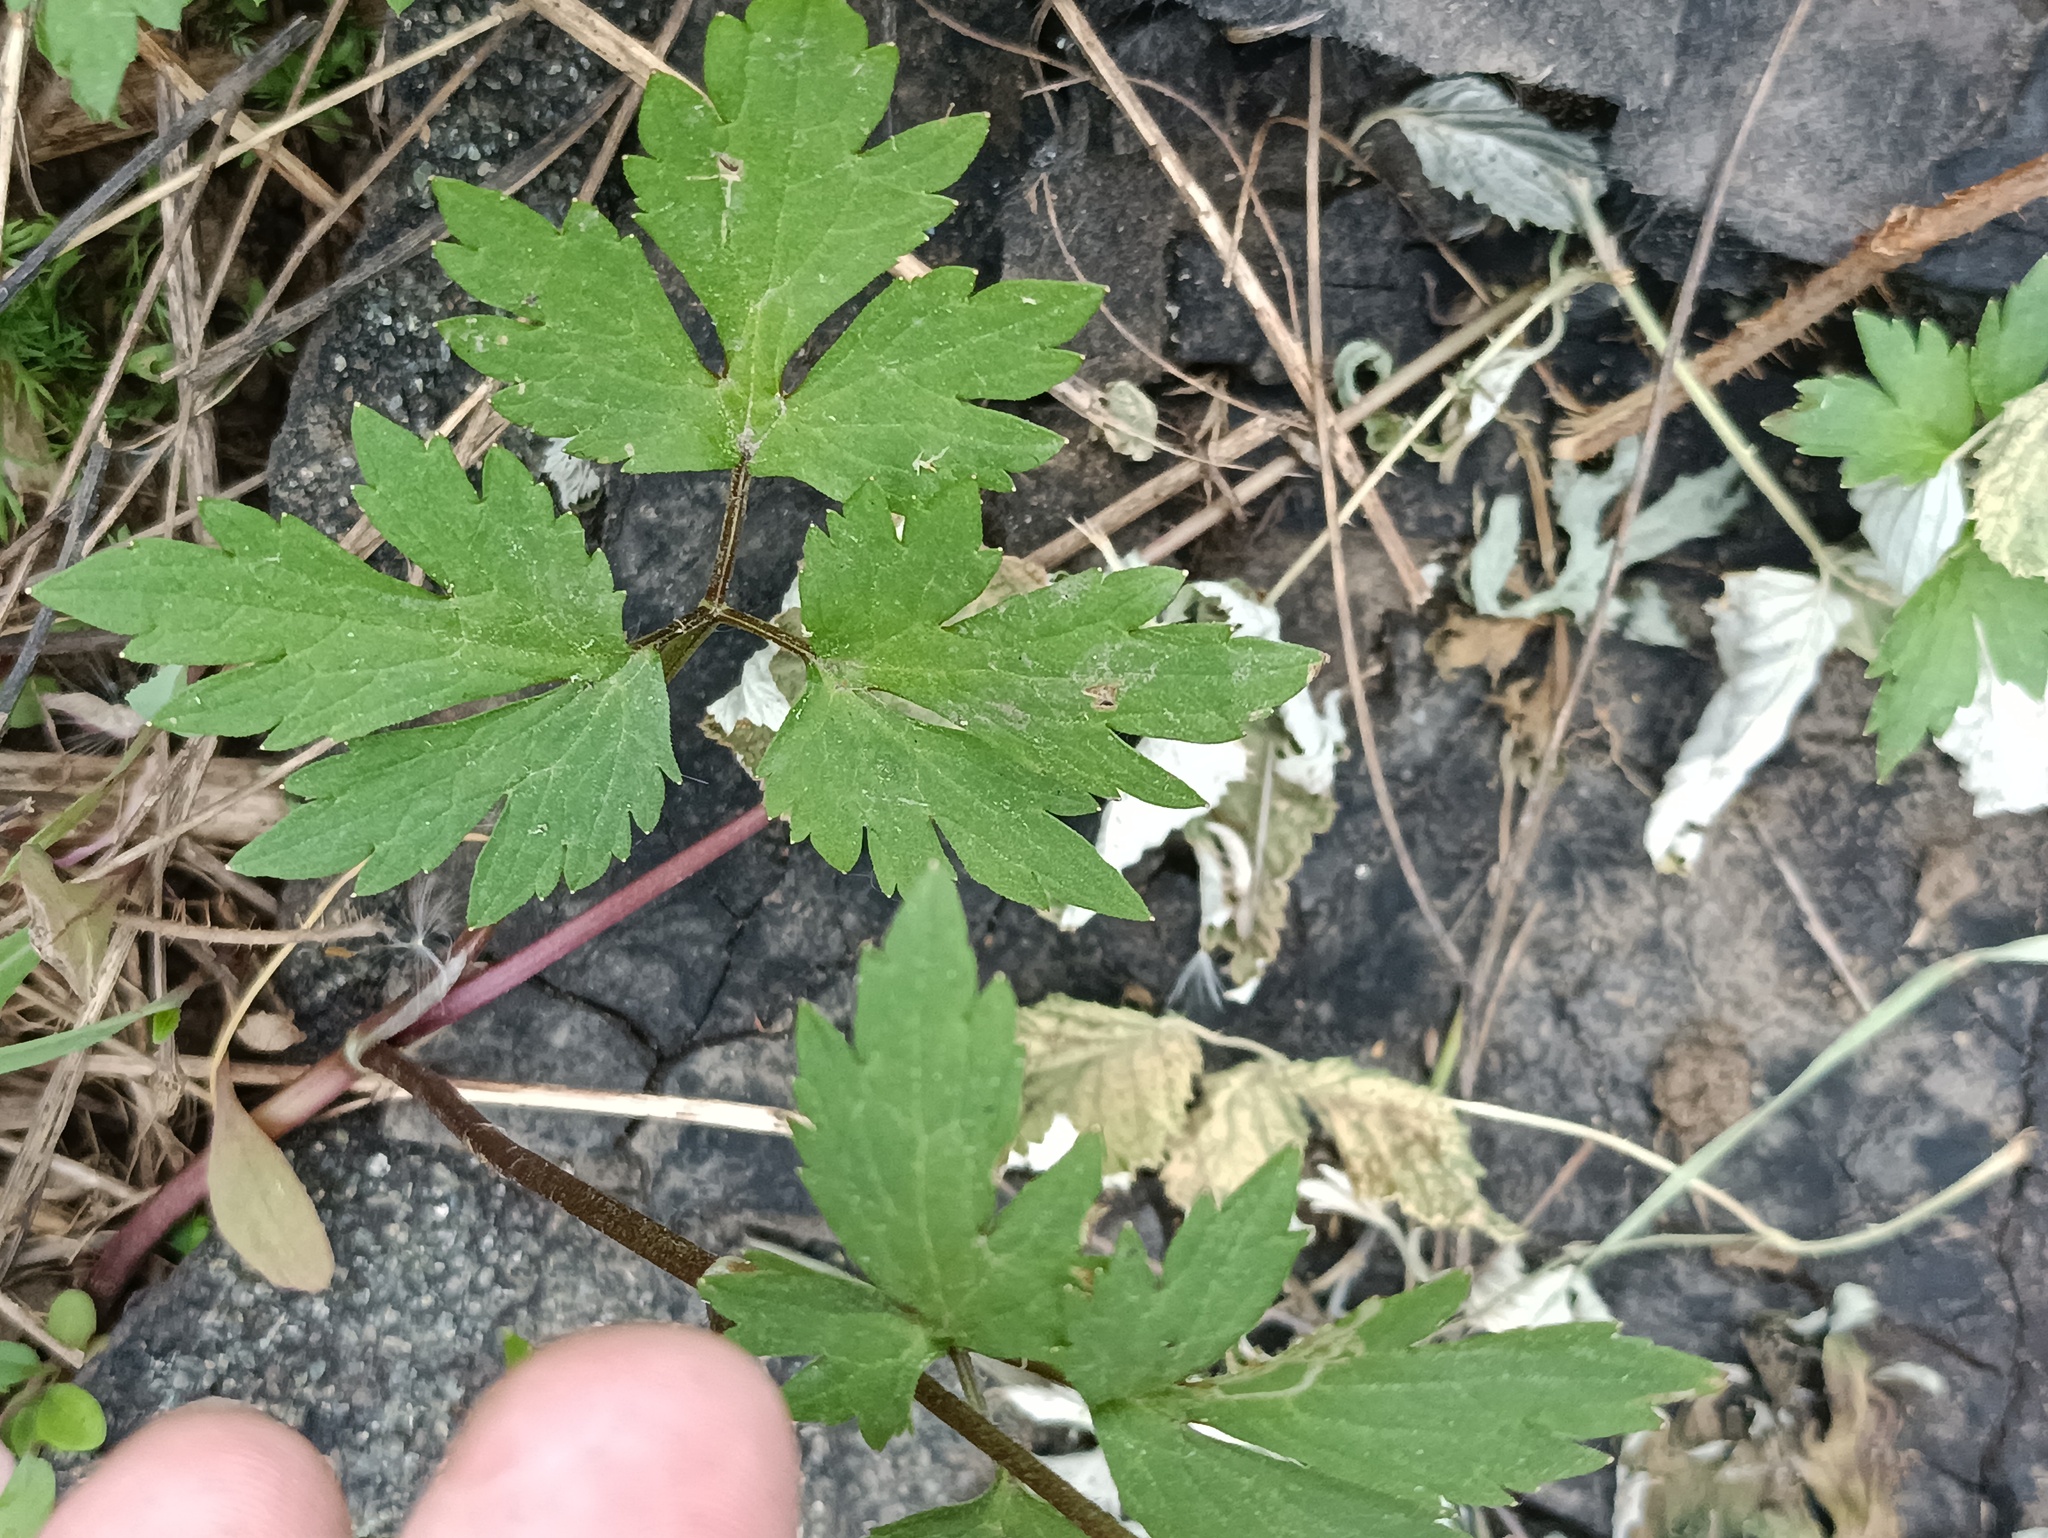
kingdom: Plantae
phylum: Tracheophyta
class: Magnoliopsida
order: Ranunculales
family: Ranunculaceae
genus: Ranunculus
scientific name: Ranunculus repens
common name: Creeping buttercup
